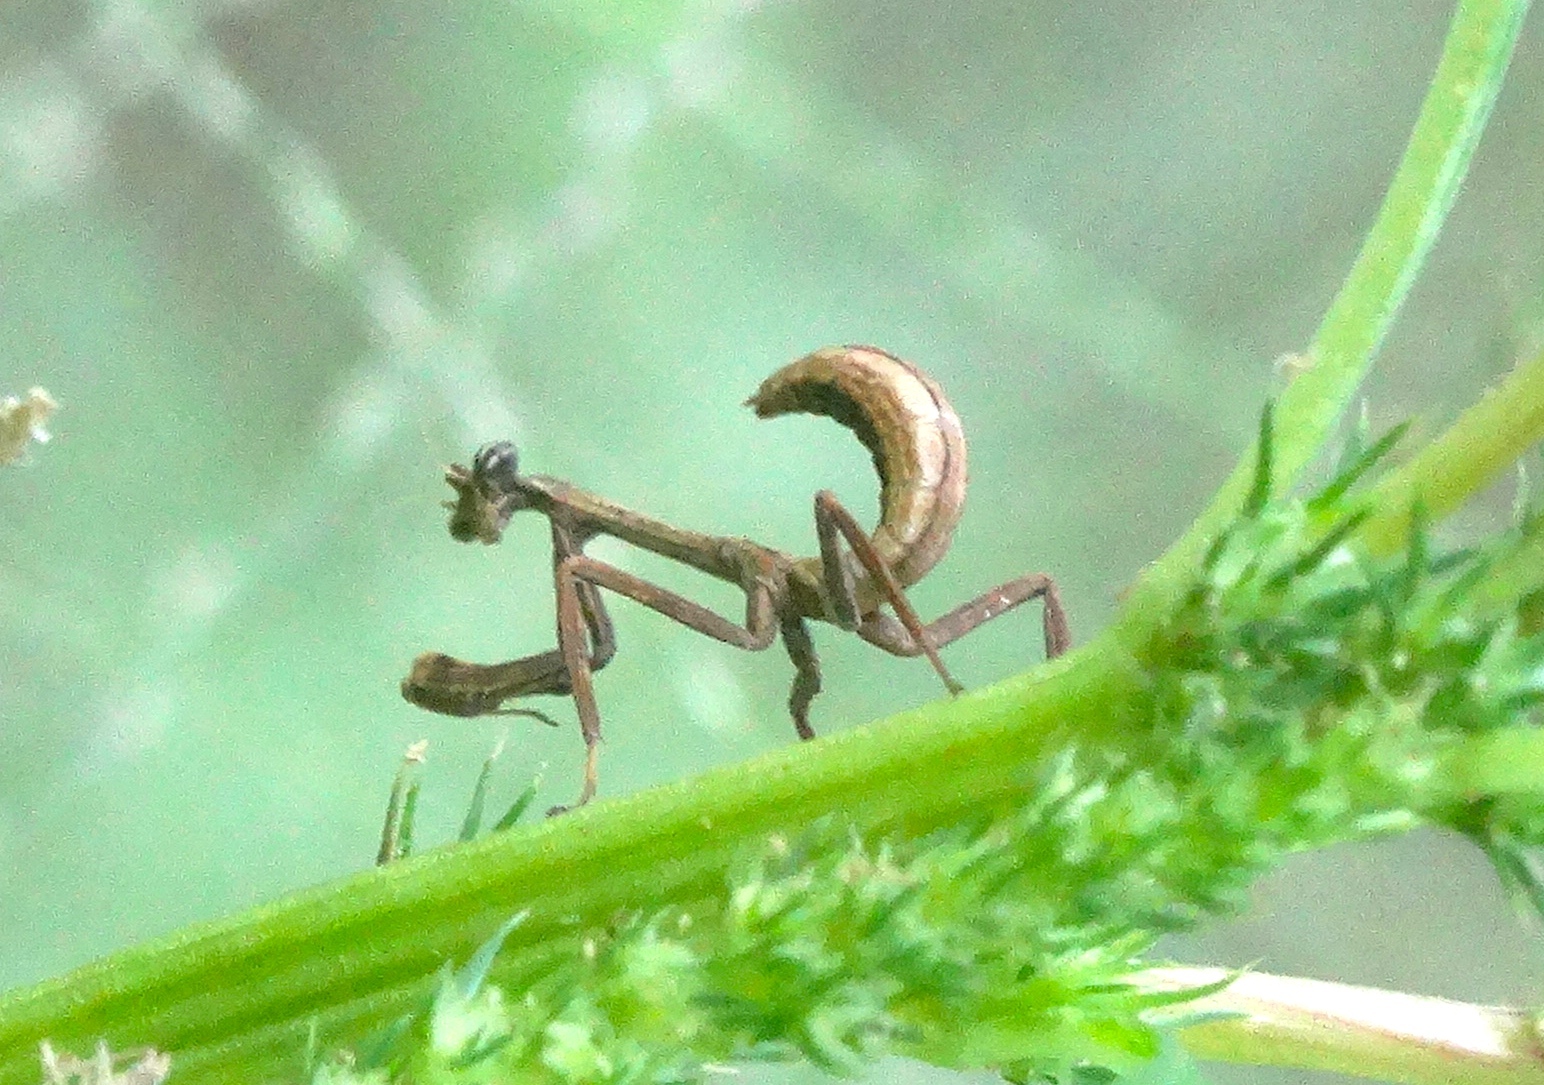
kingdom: Animalia
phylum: Arthropoda
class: Insecta
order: Mantodea
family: Mantidae
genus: Pseudovates
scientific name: Pseudovates chlorophaea
